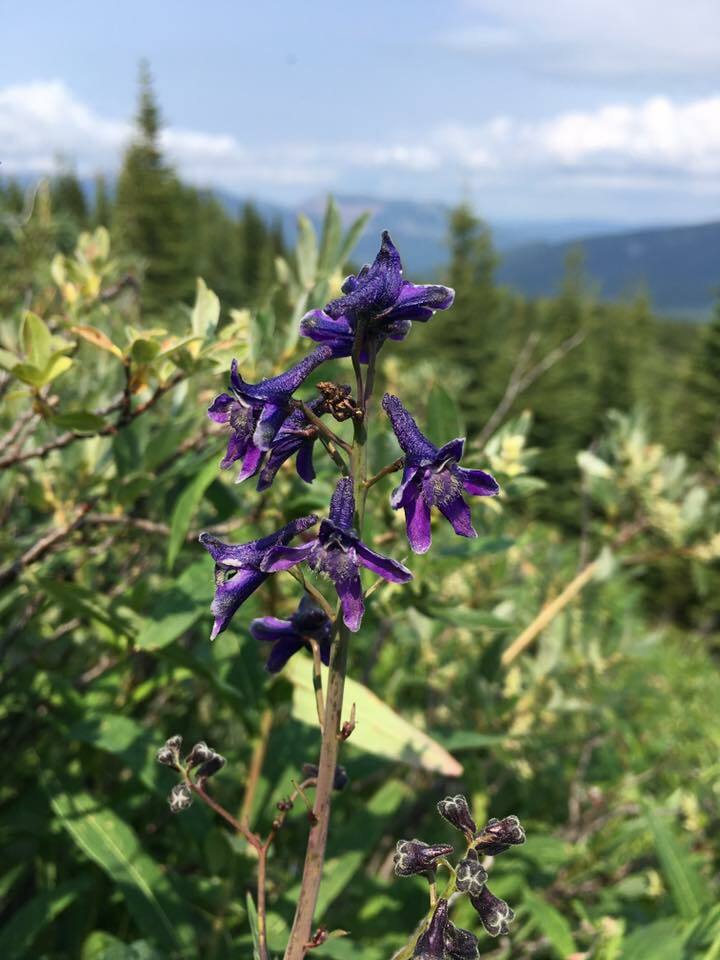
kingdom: Plantae
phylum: Tracheophyta
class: Magnoliopsida
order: Ranunculales
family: Ranunculaceae
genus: Delphinium
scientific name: Delphinium glaucum
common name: Brown's larkspur
